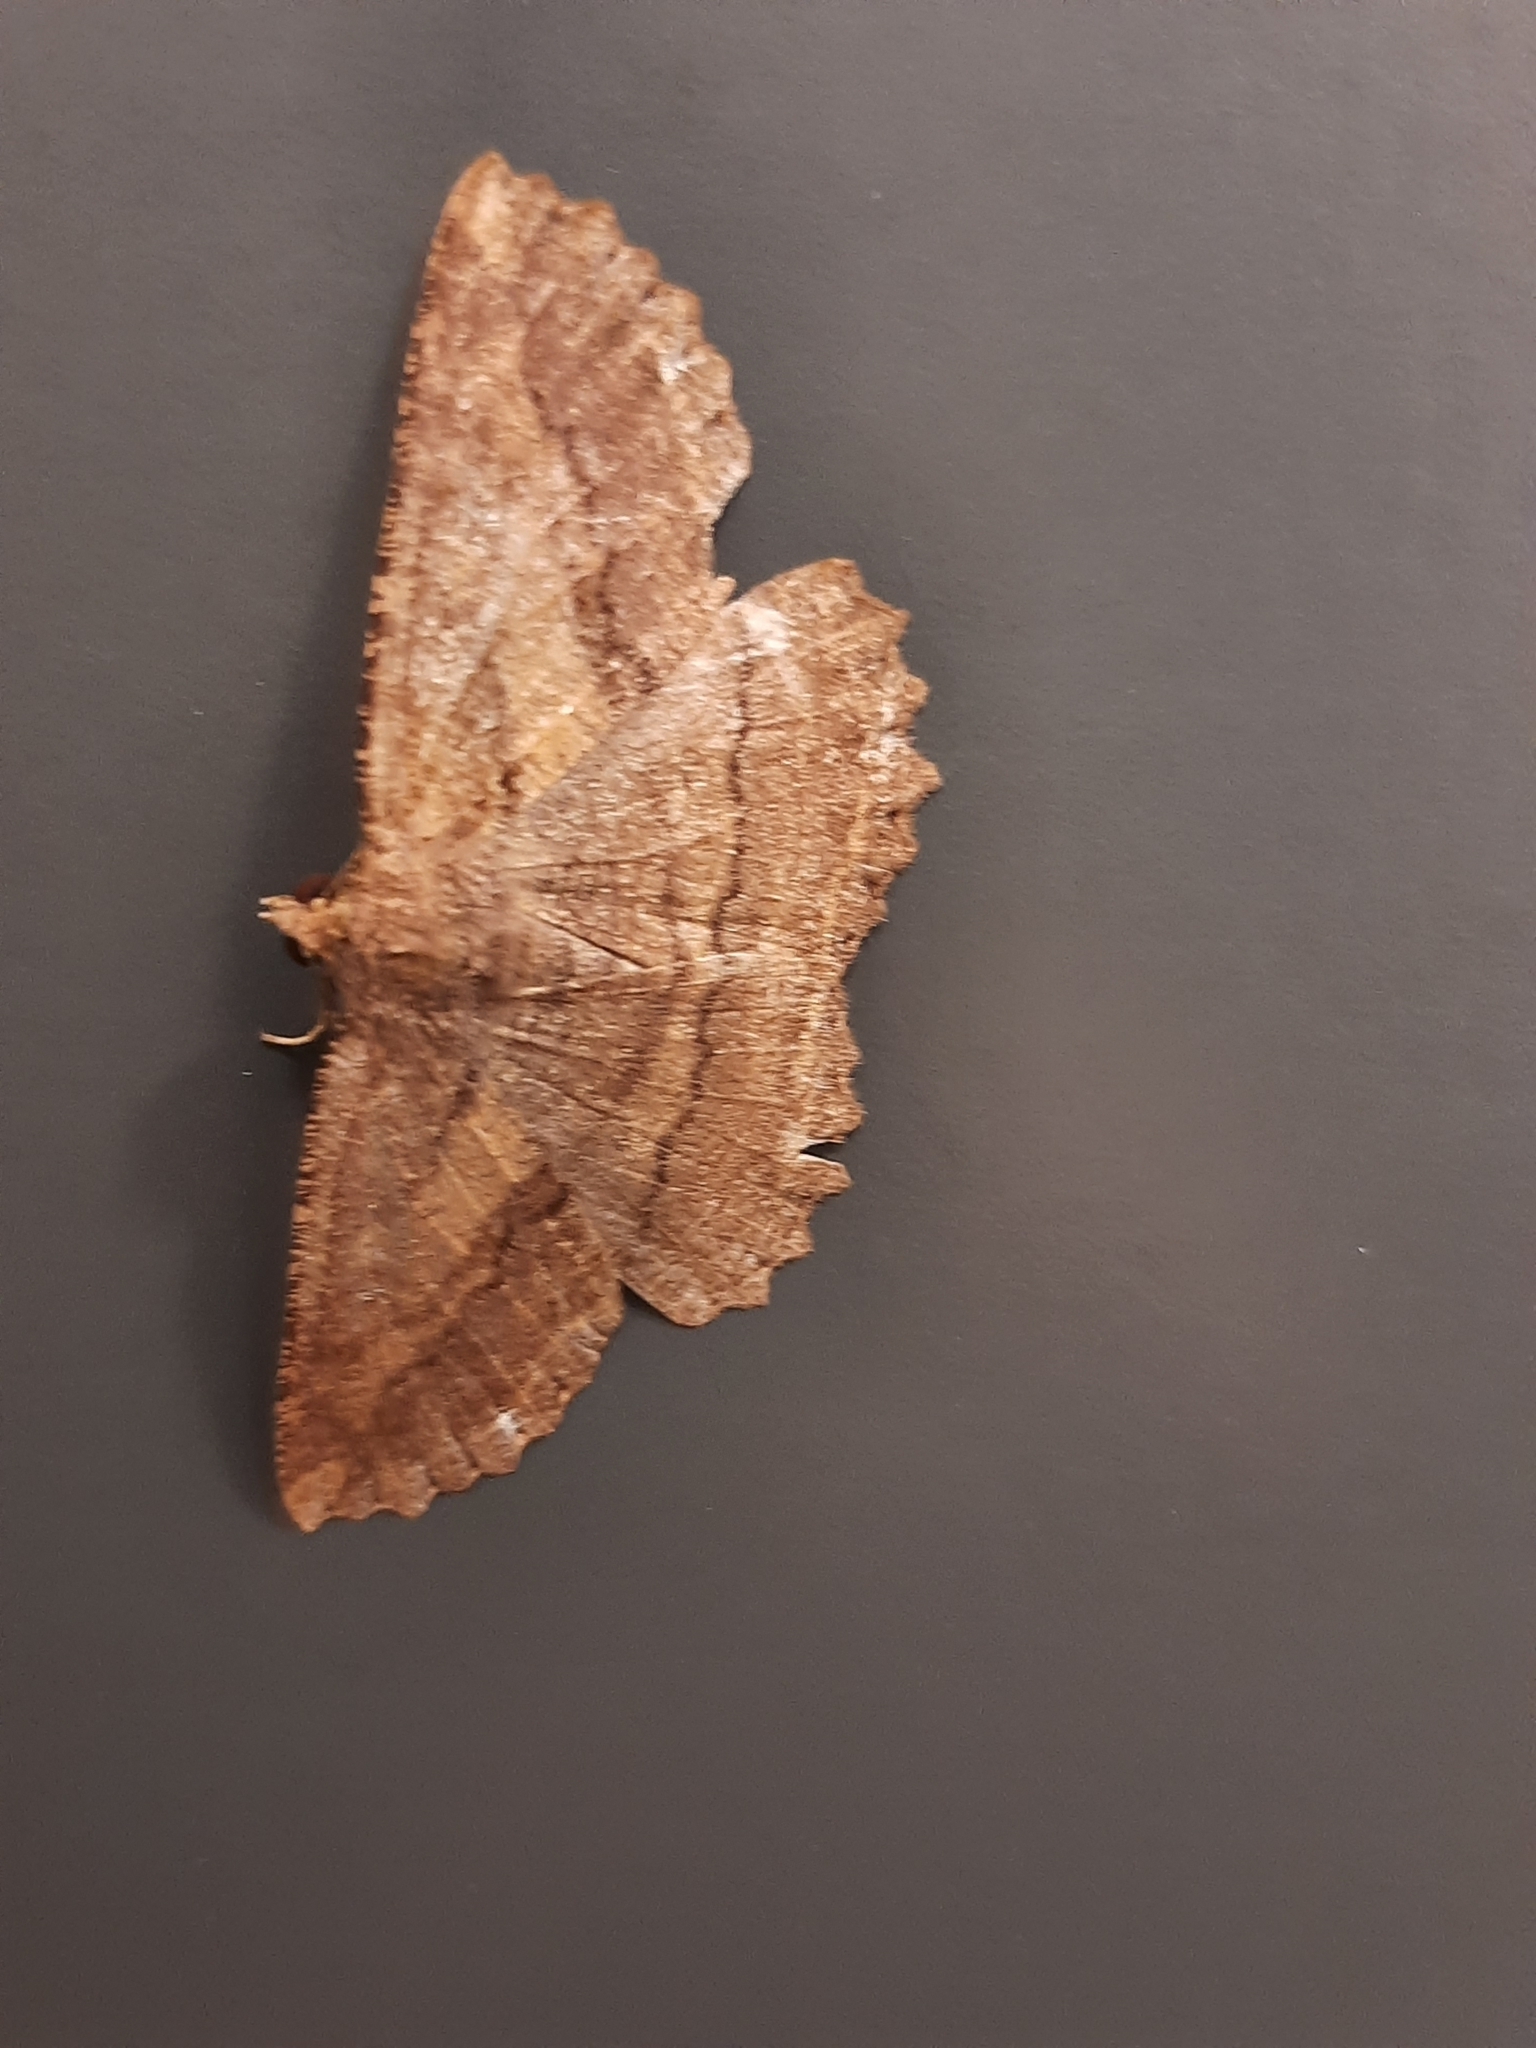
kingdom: Animalia
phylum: Arthropoda
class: Insecta
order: Lepidoptera
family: Geometridae
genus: Gellonia
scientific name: Gellonia dejectaria
